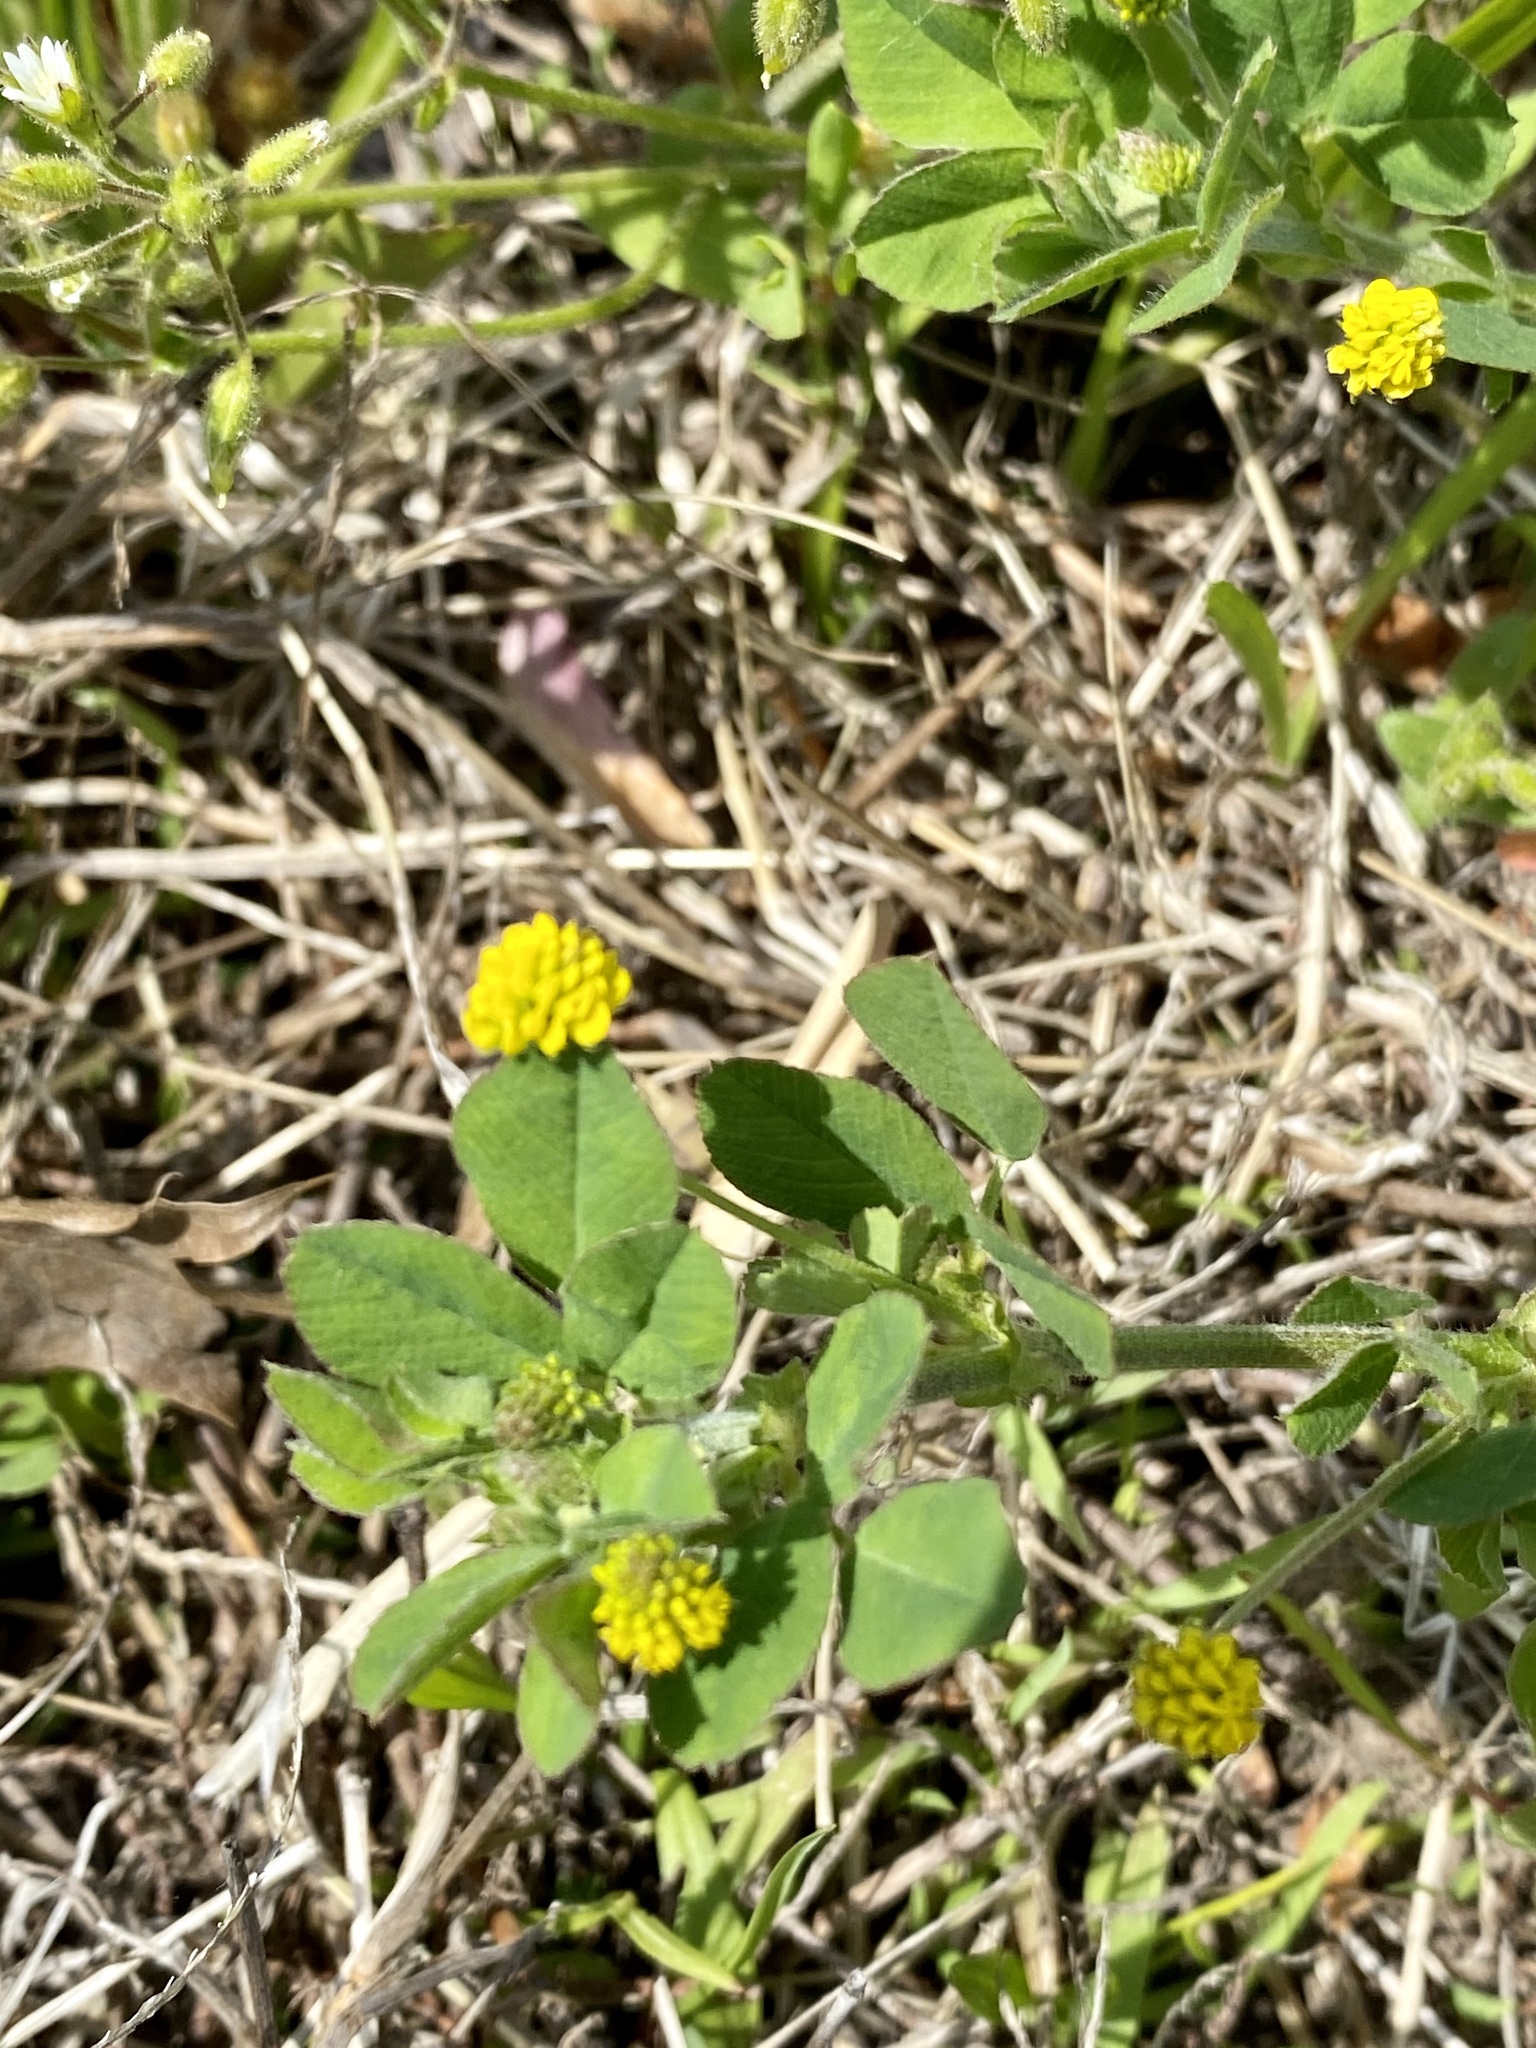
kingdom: Plantae
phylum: Tracheophyta
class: Magnoliopsida
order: Fabales
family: Fabaceae
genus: Medicago
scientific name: Medicago lupulina
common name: Black medick
